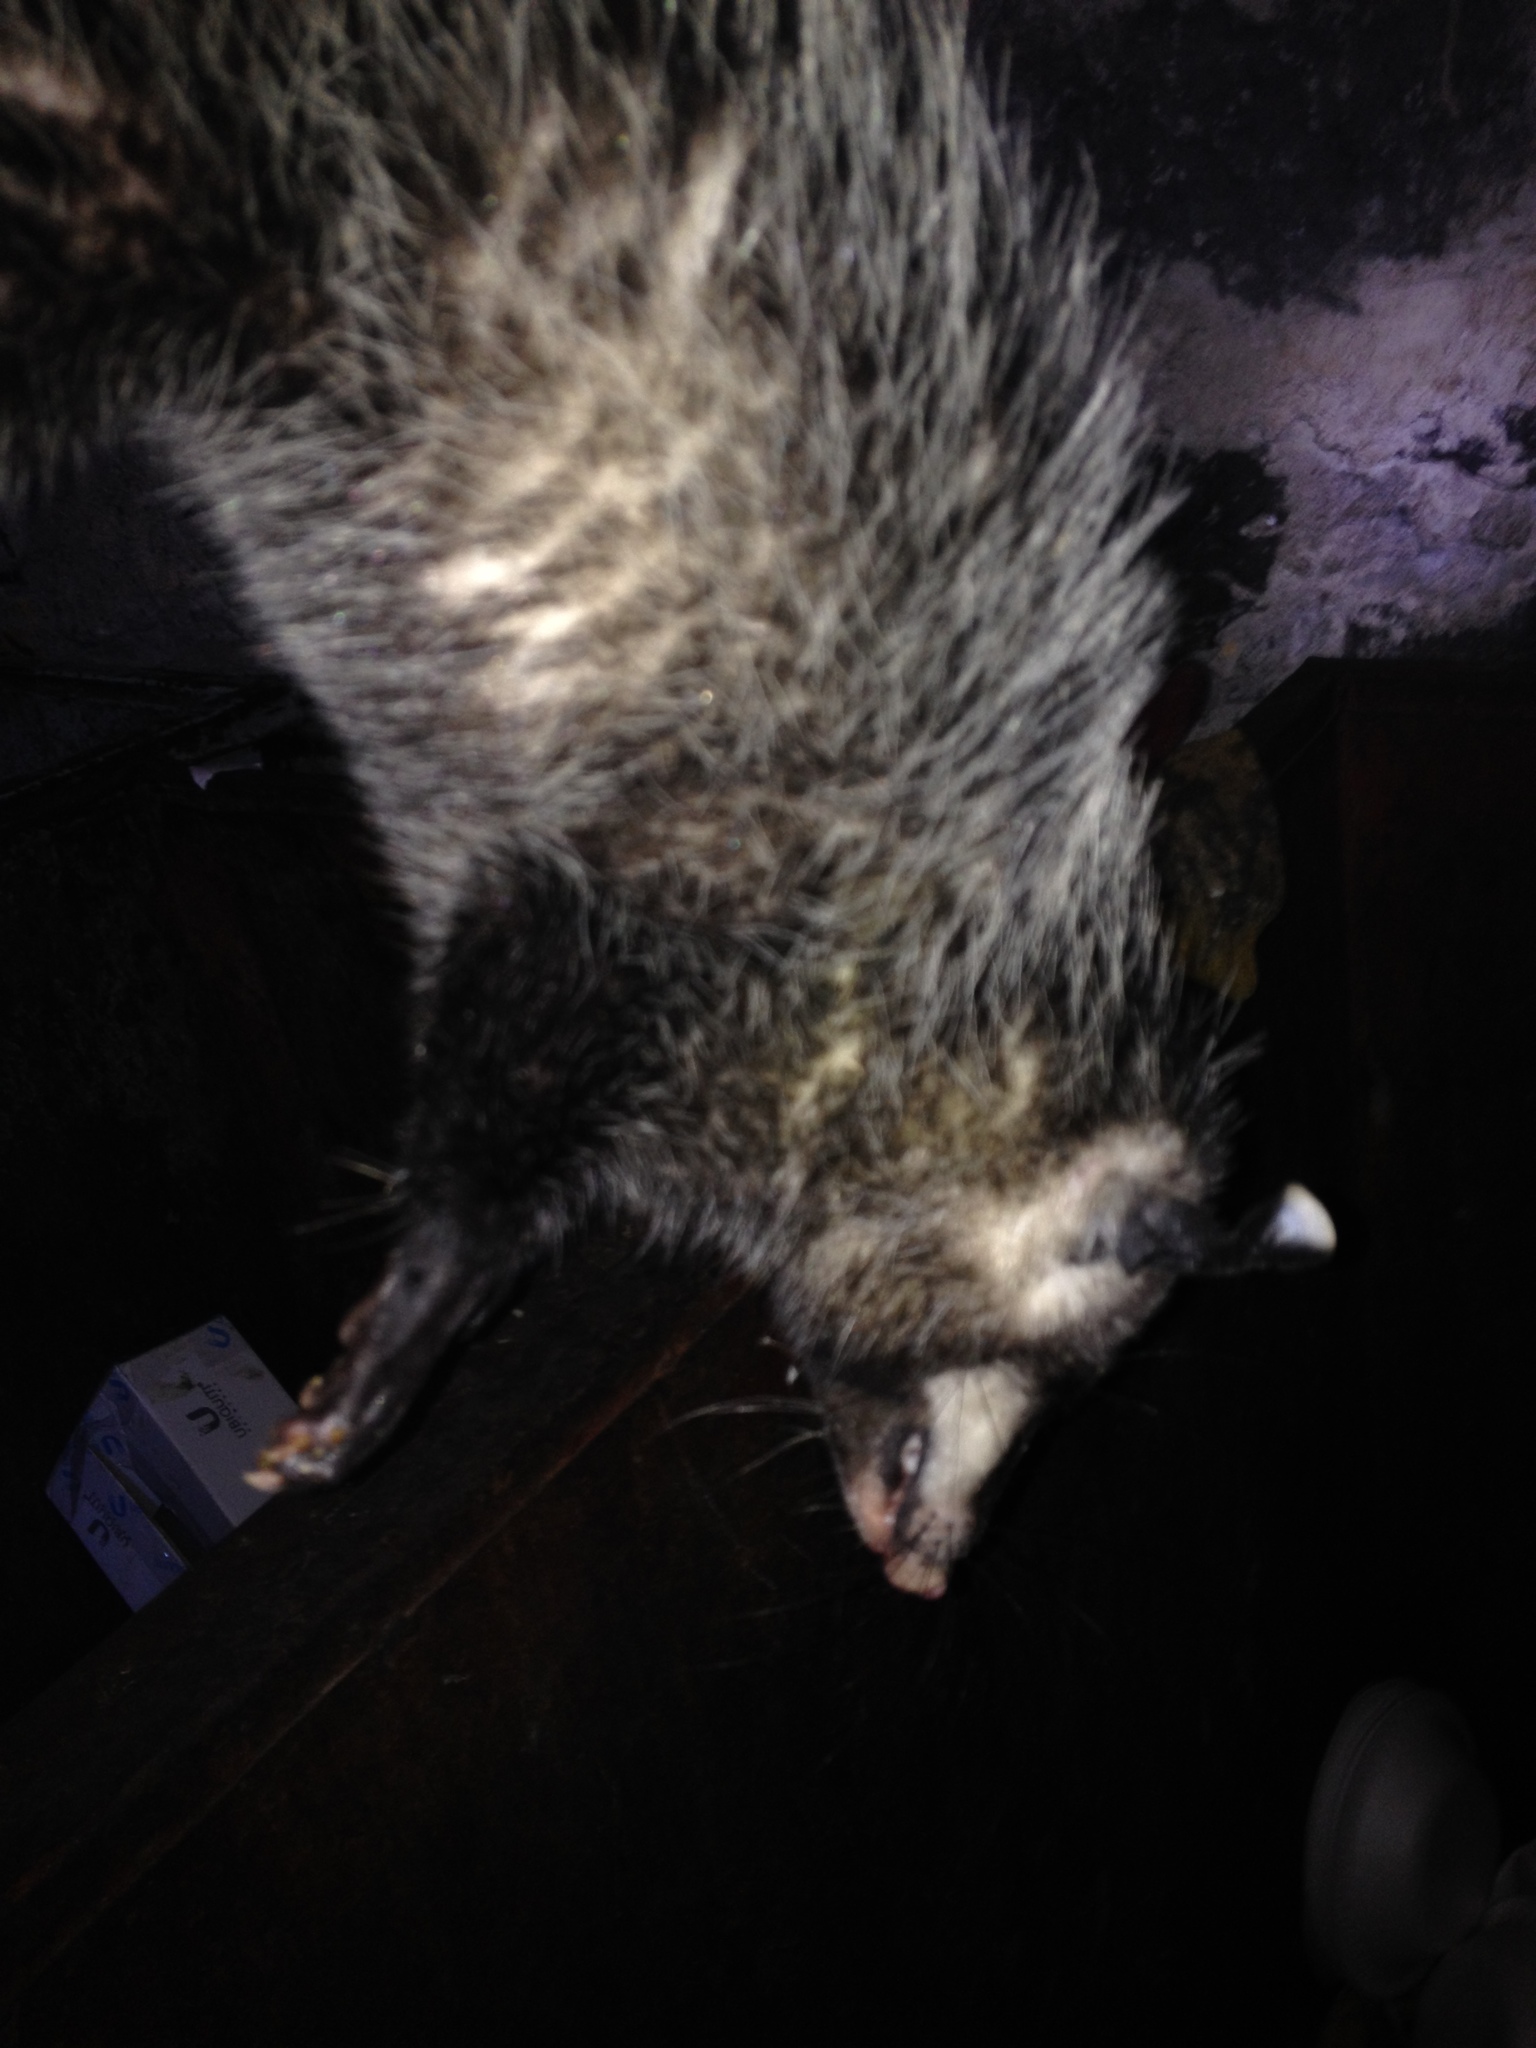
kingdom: Animalia
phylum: Chordata
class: Mammalia
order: Didelphimorphia
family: Didelphidae
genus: Didelphis
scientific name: Didelphis virginiana
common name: Virginia opossum
